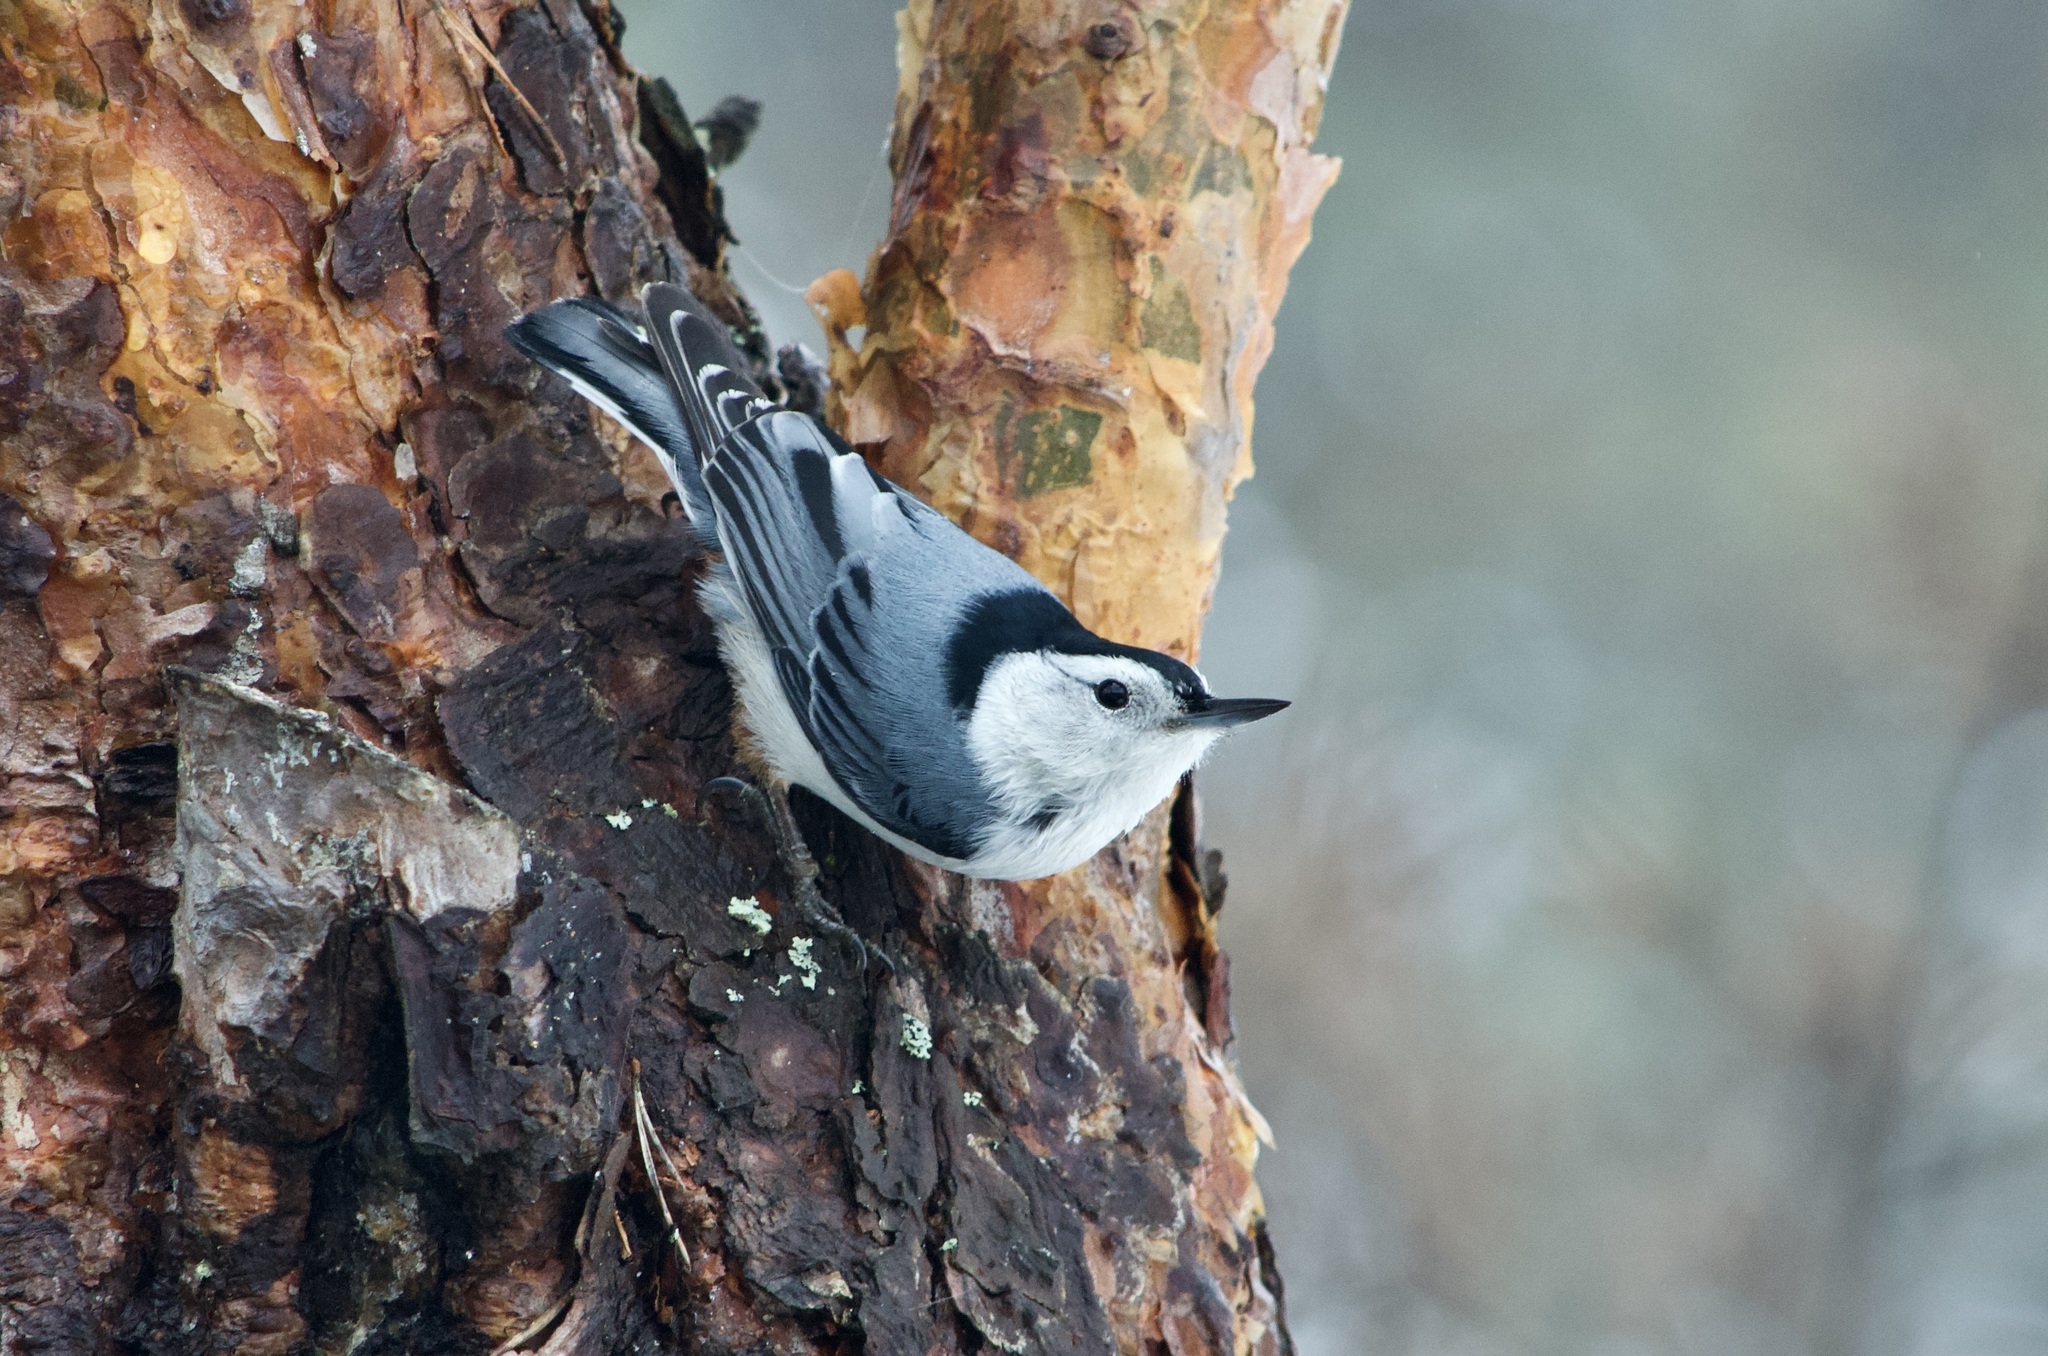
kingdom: Animalia
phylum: Chordata
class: Aves
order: Passeriformes
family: Sittidae
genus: Sitta
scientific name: Sitta carolinensis
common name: White-breasted nuthatch
